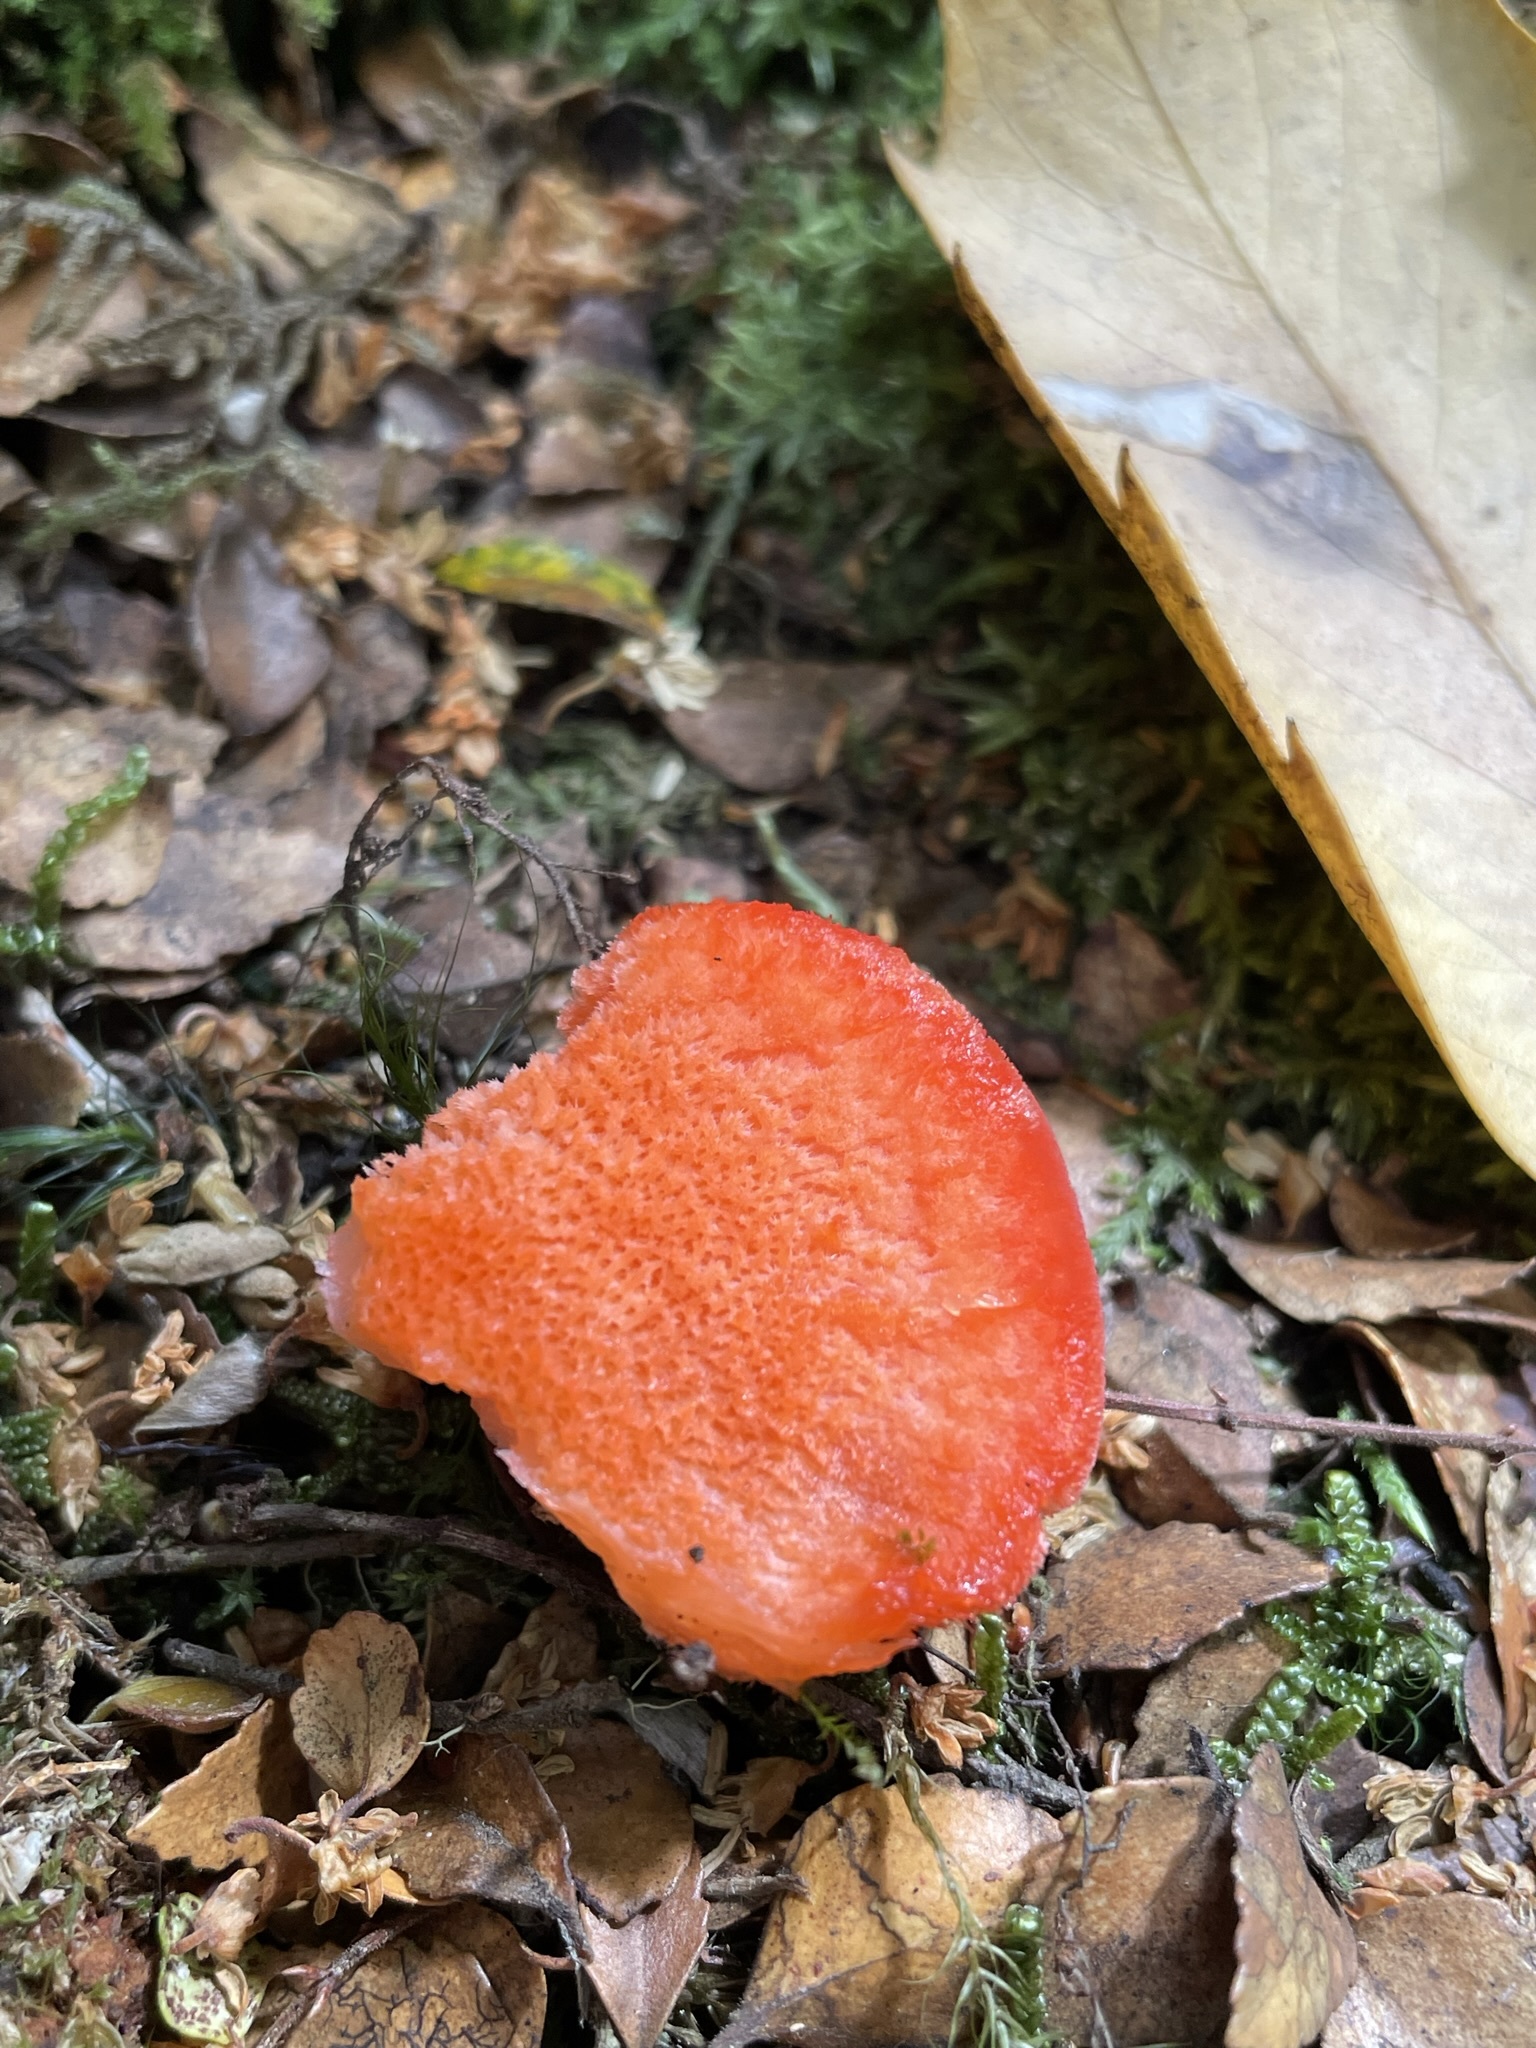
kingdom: Fungi
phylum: Basidiomycota
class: Agaricomycetes
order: Polyporales
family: Incrustoporiaceae
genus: Tyromyces
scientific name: Tyromyces pulcherrimus
